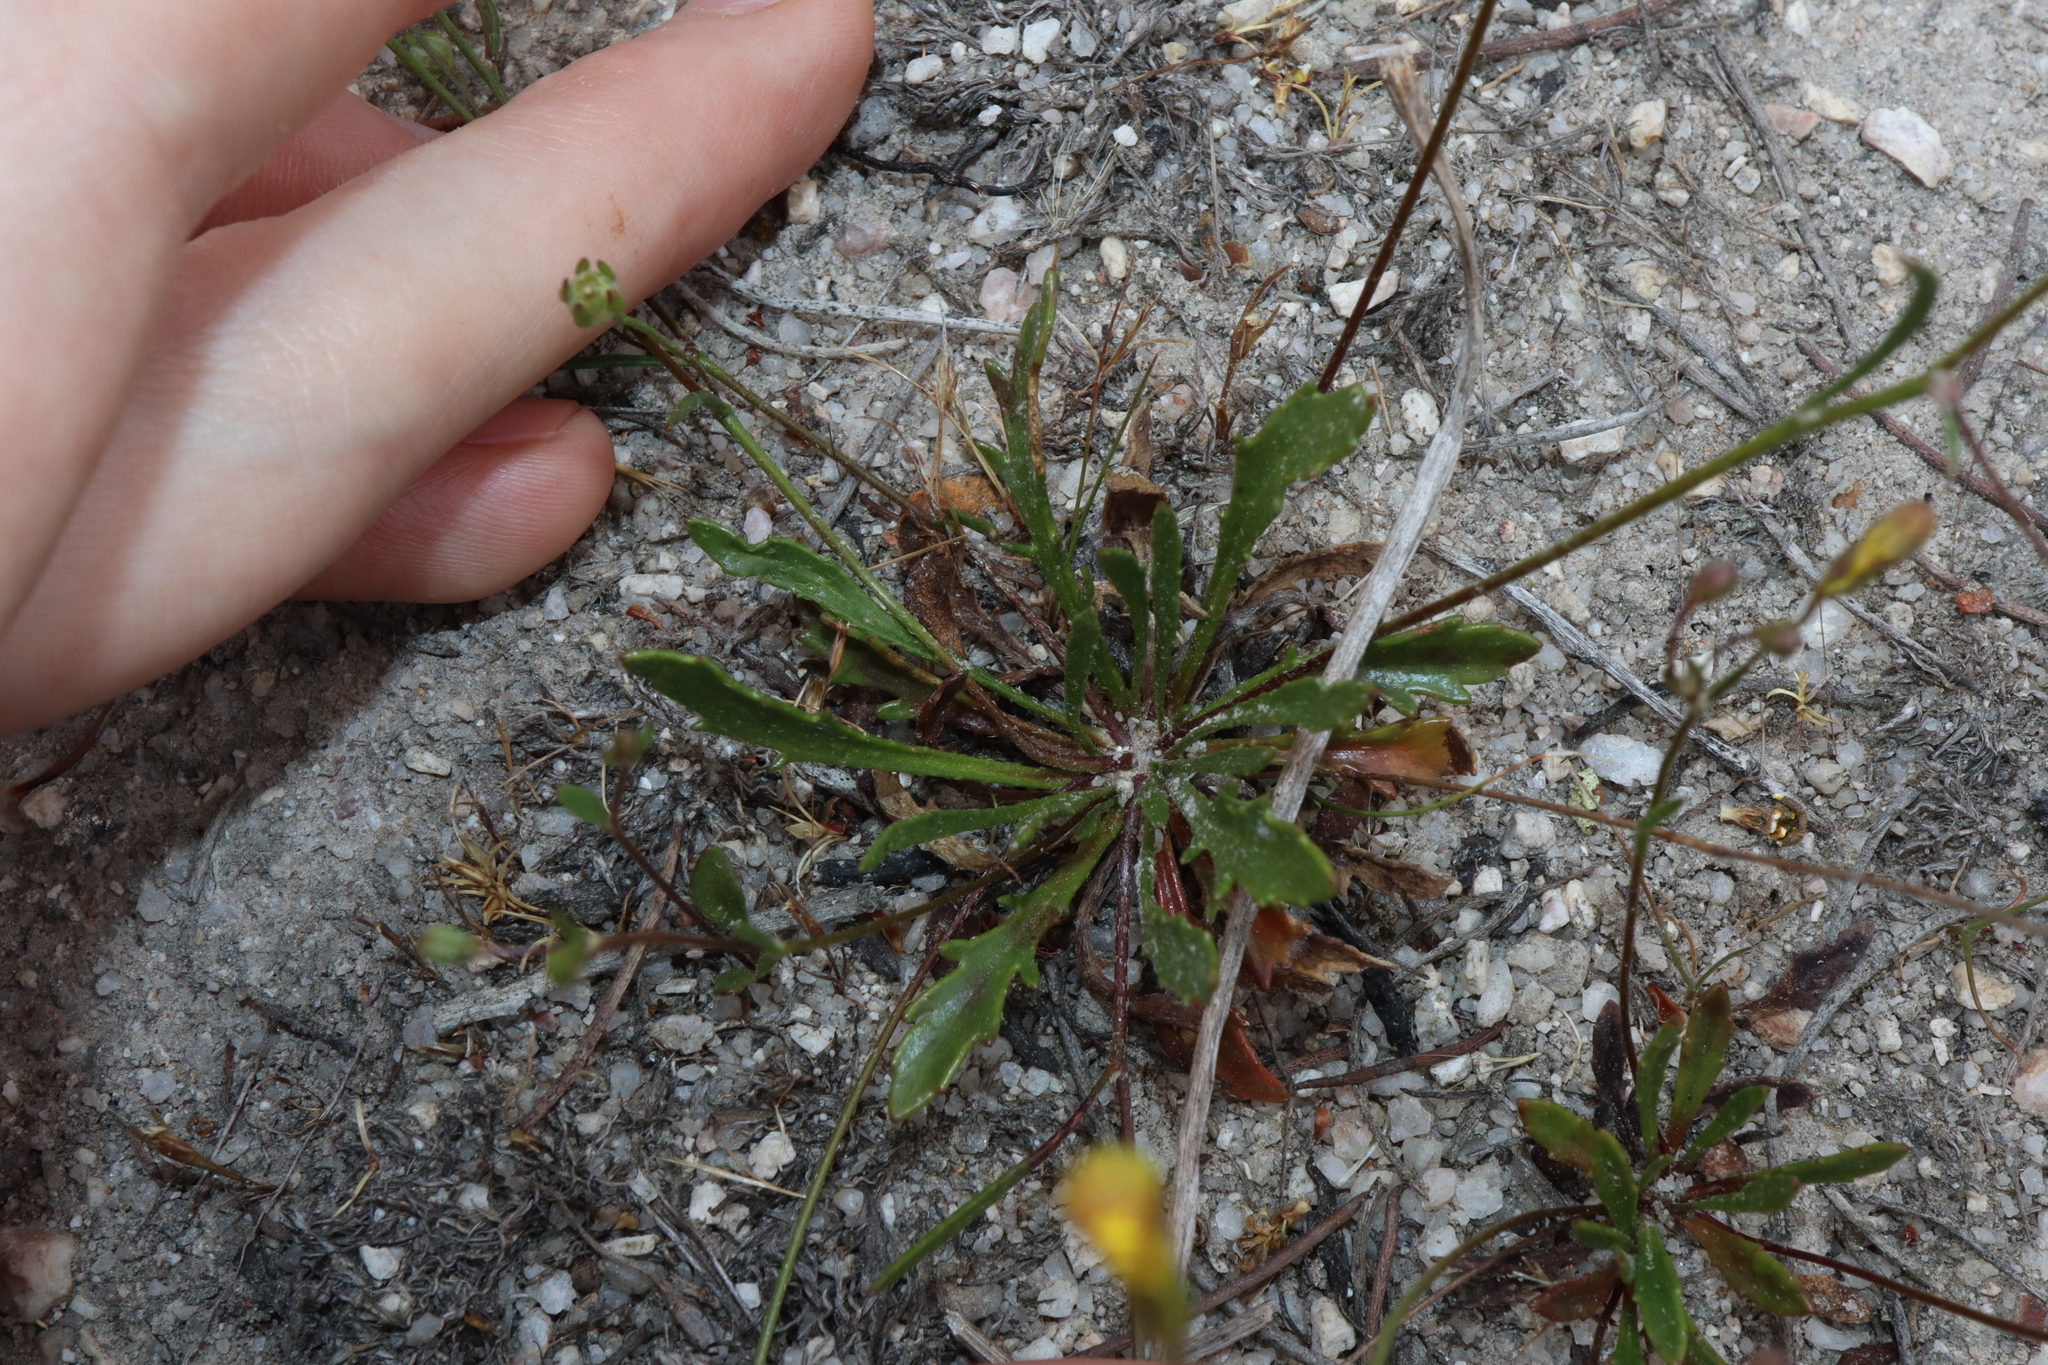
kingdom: Plantae
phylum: Tracheophyta
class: Magnoliopsida
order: Asterales
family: Goodeniaceae
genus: Goodenia
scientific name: Goodenia pulchella
